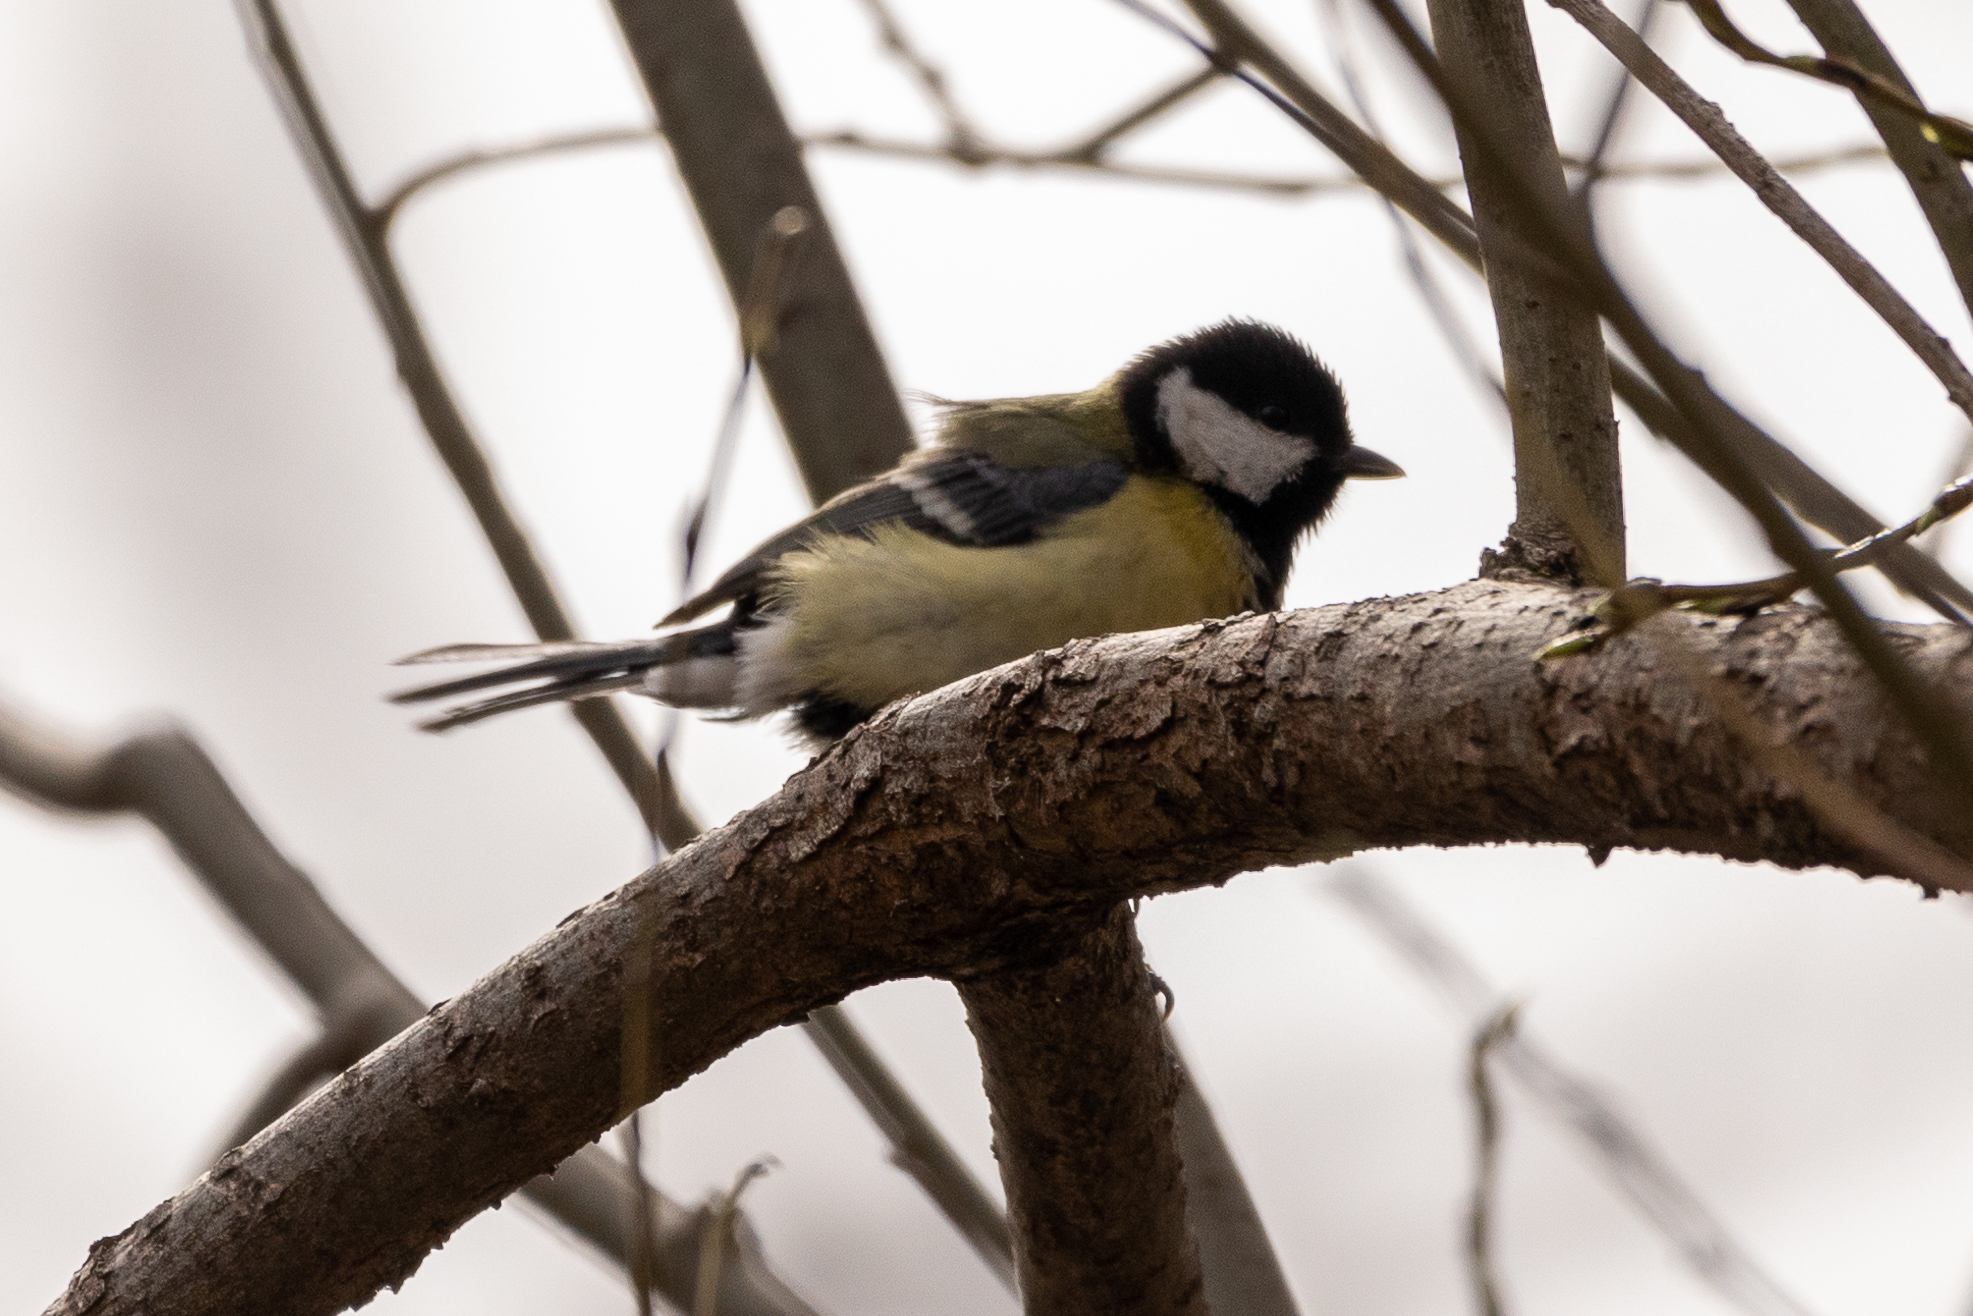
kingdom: Animalia
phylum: Chordata
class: Aves
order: Passeriformes
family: Paridae
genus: Parus
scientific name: Parus major
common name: Great tit
